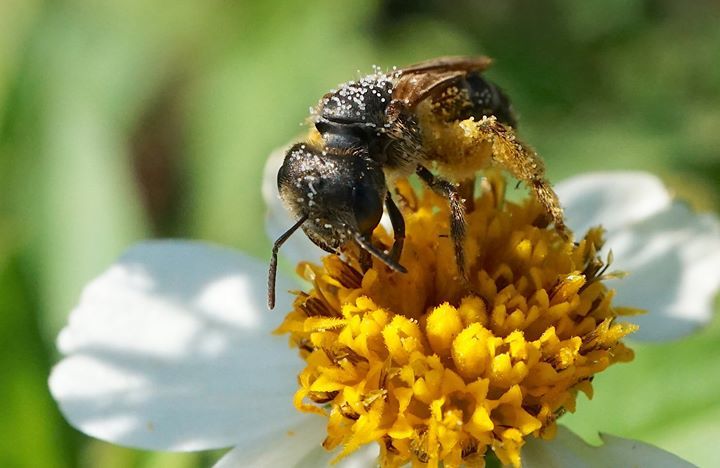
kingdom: Animalia
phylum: Arthropoda
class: Insecta
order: Hymenoptera
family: Halictidae
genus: Halictus
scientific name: Halictus poeyi
